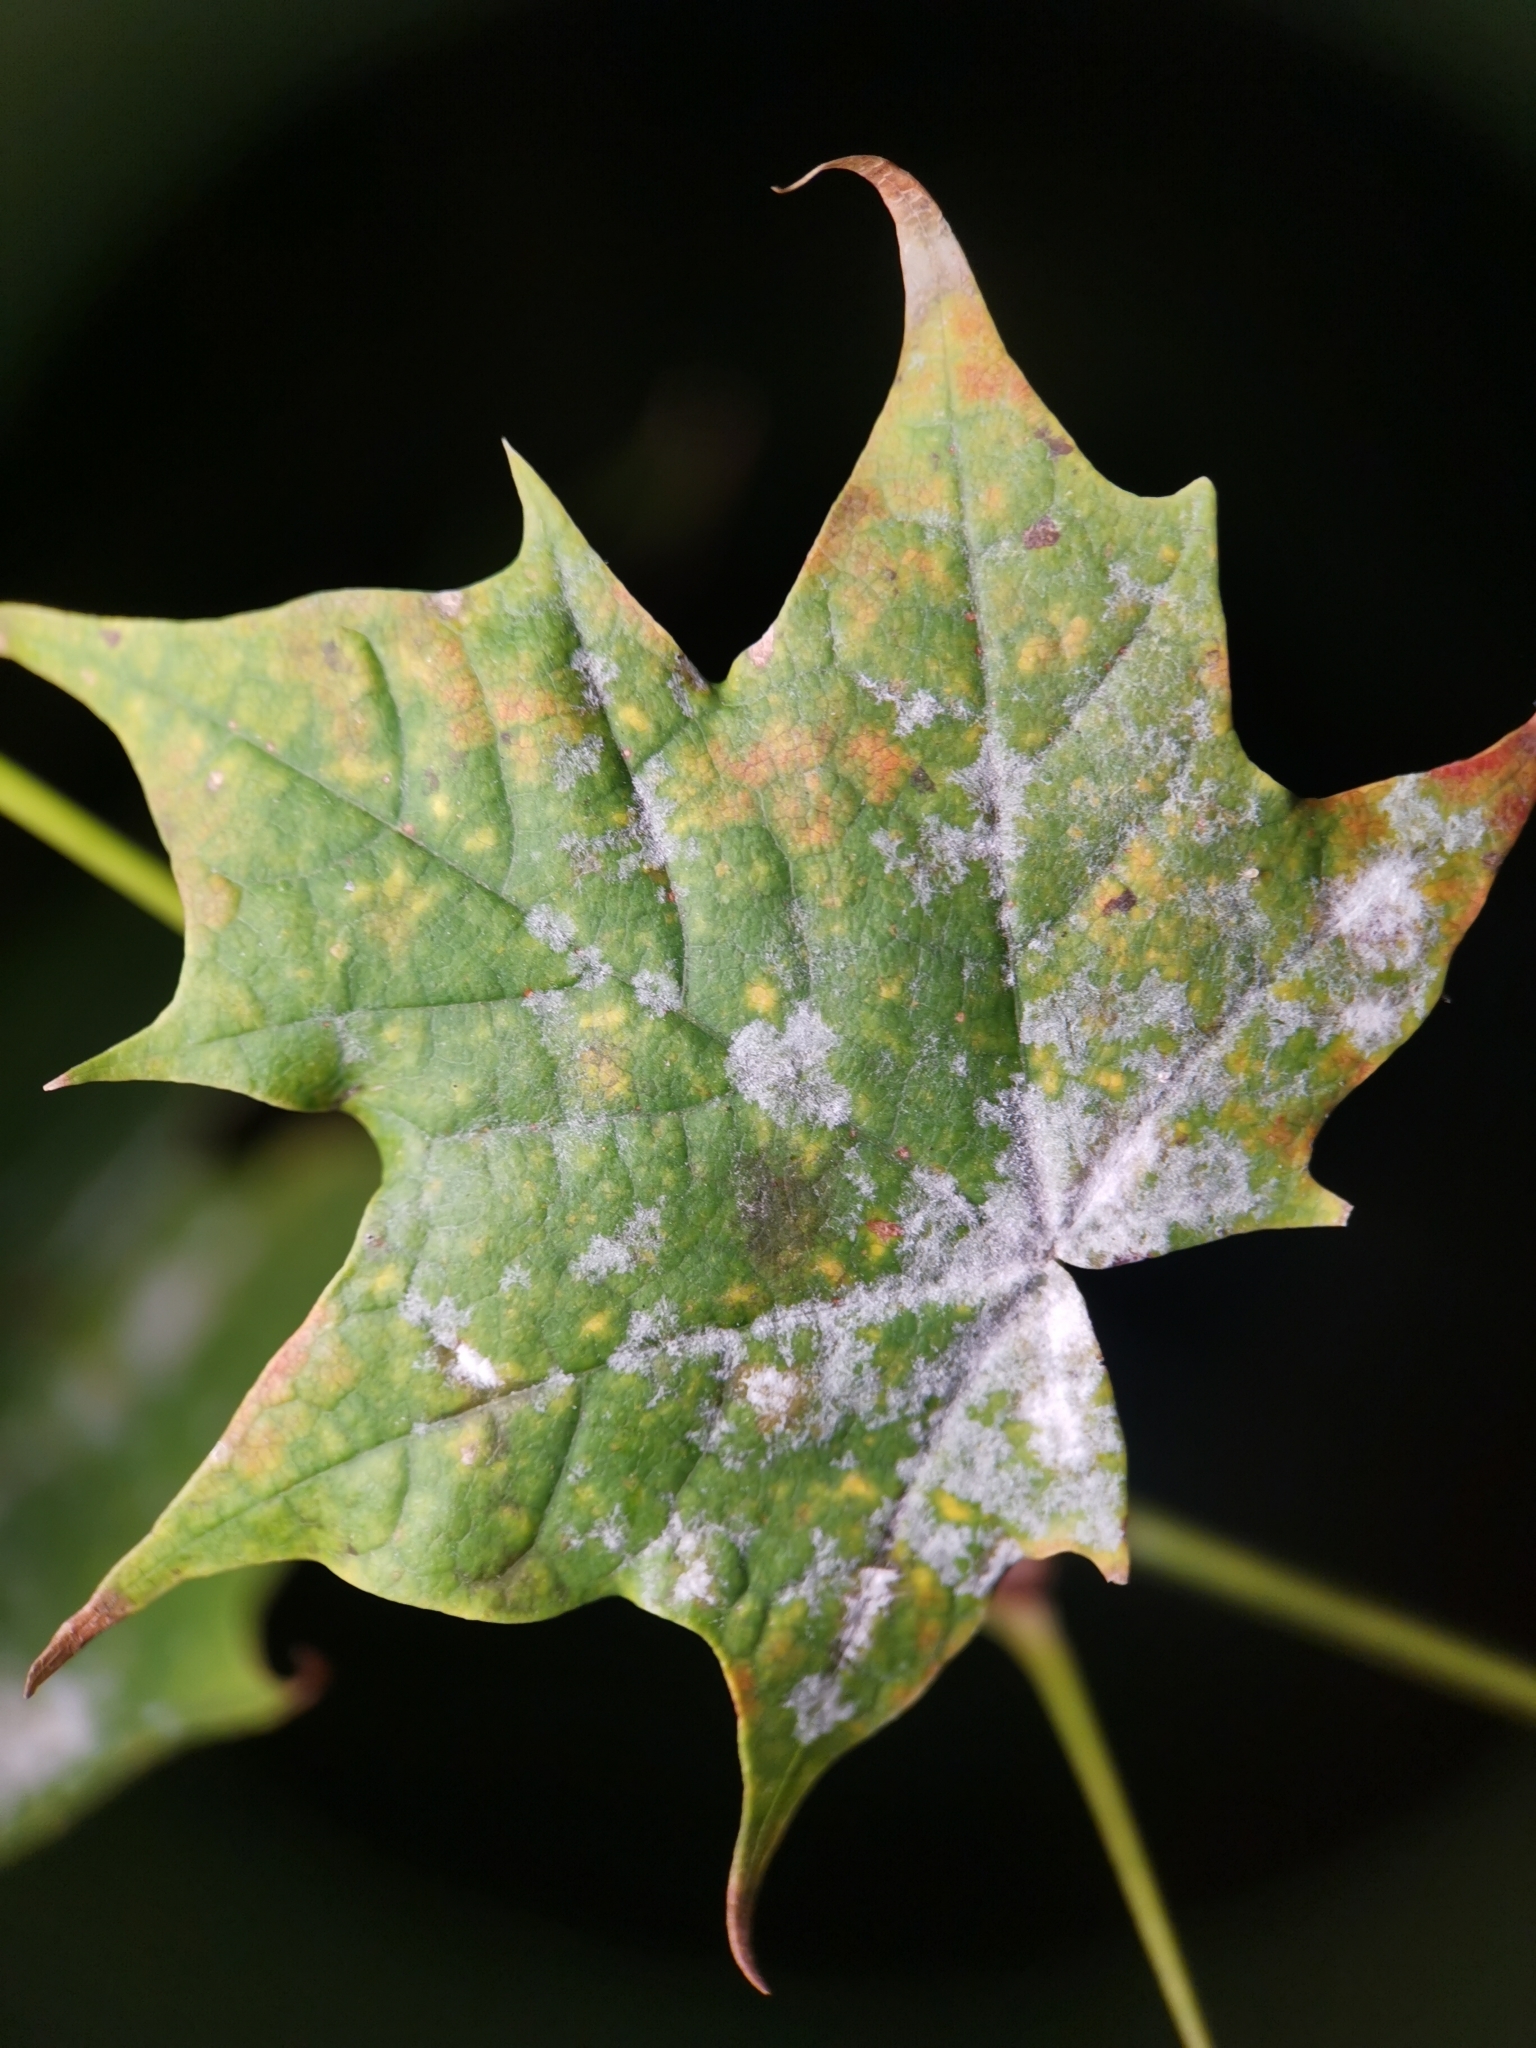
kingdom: Fungi
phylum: Ascomycota
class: Leotiomycetes
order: Helotiales
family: Erysiphaceae
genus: Sawadaea
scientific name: Sawadaea tulasnei
